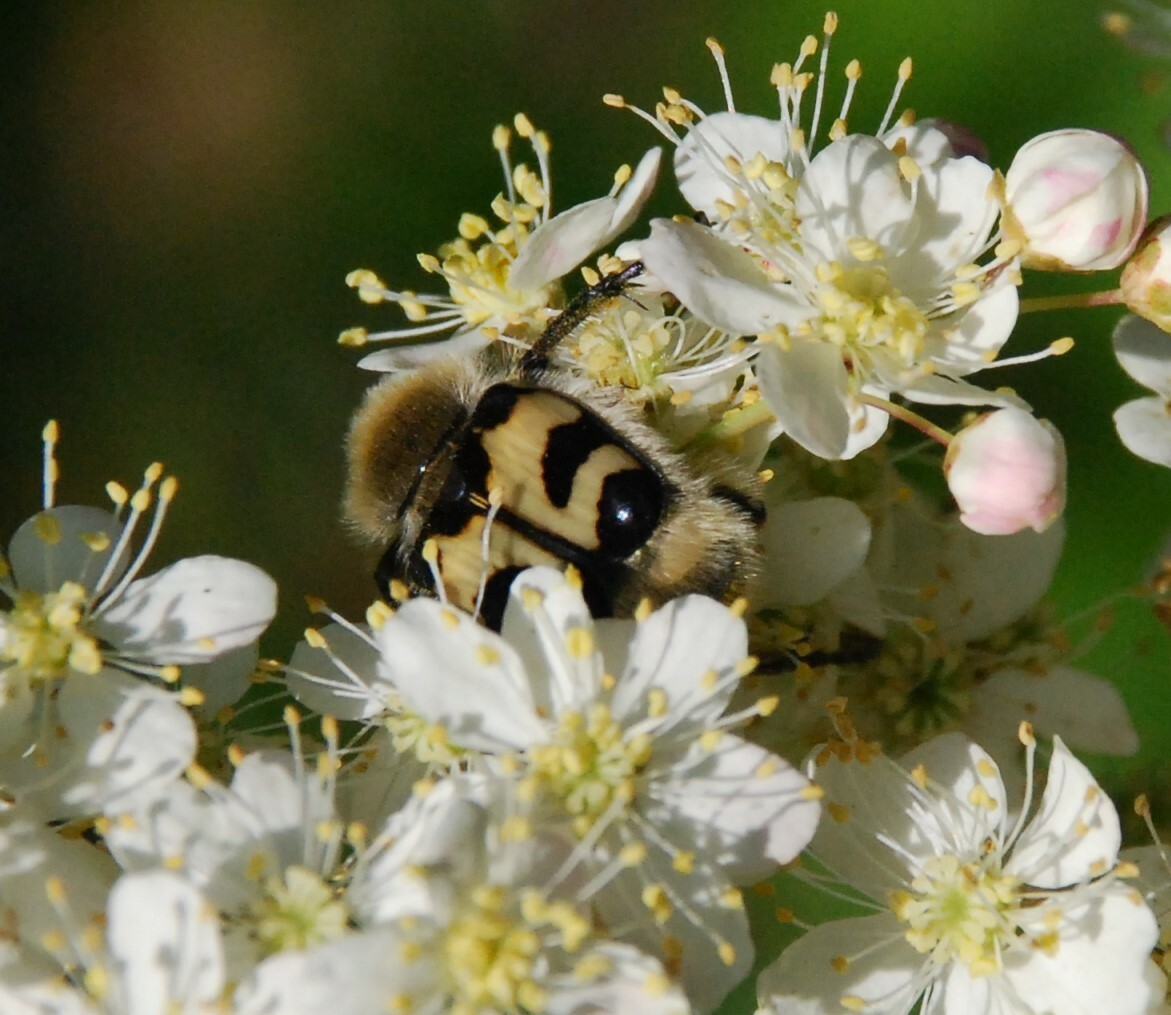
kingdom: Animalia
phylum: Arthropoda
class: Insecta
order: Coleoptera
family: Scarabaeidae
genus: Trichius
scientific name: Trichius fasciatus
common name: Bee beetle
